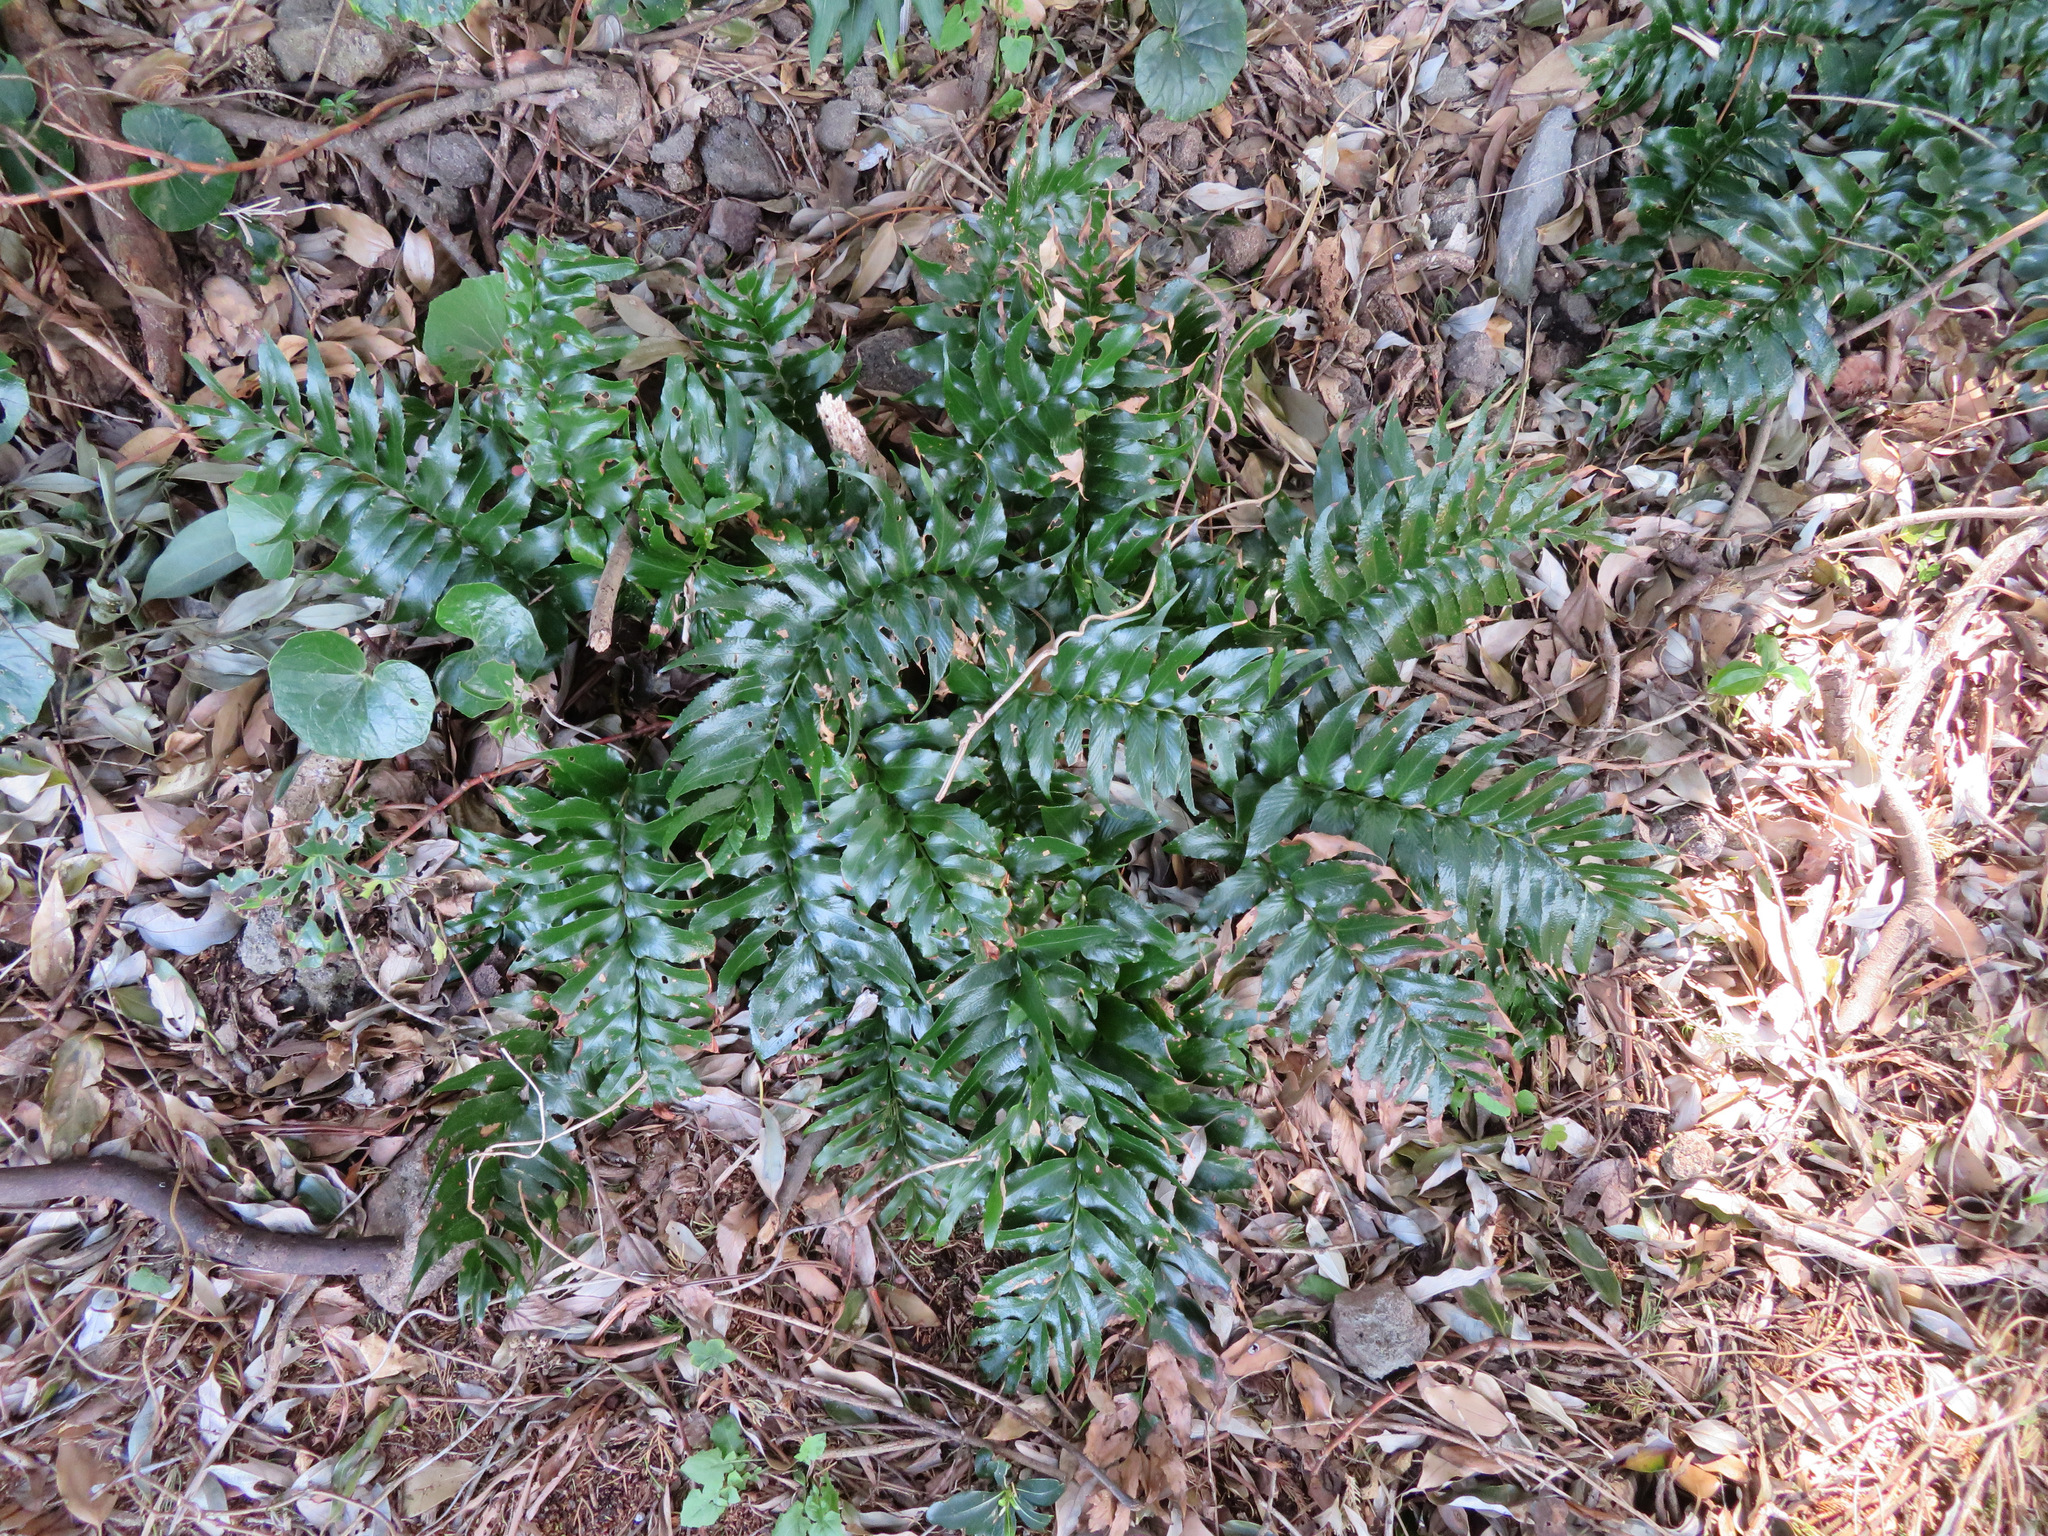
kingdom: Plantae
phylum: Tracheophyta
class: Polypodiopsida
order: Polypodiales
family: Dryopteridaceae
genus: Cyrtomium
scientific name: Cyrtomium falcatum
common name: House holly-fern
